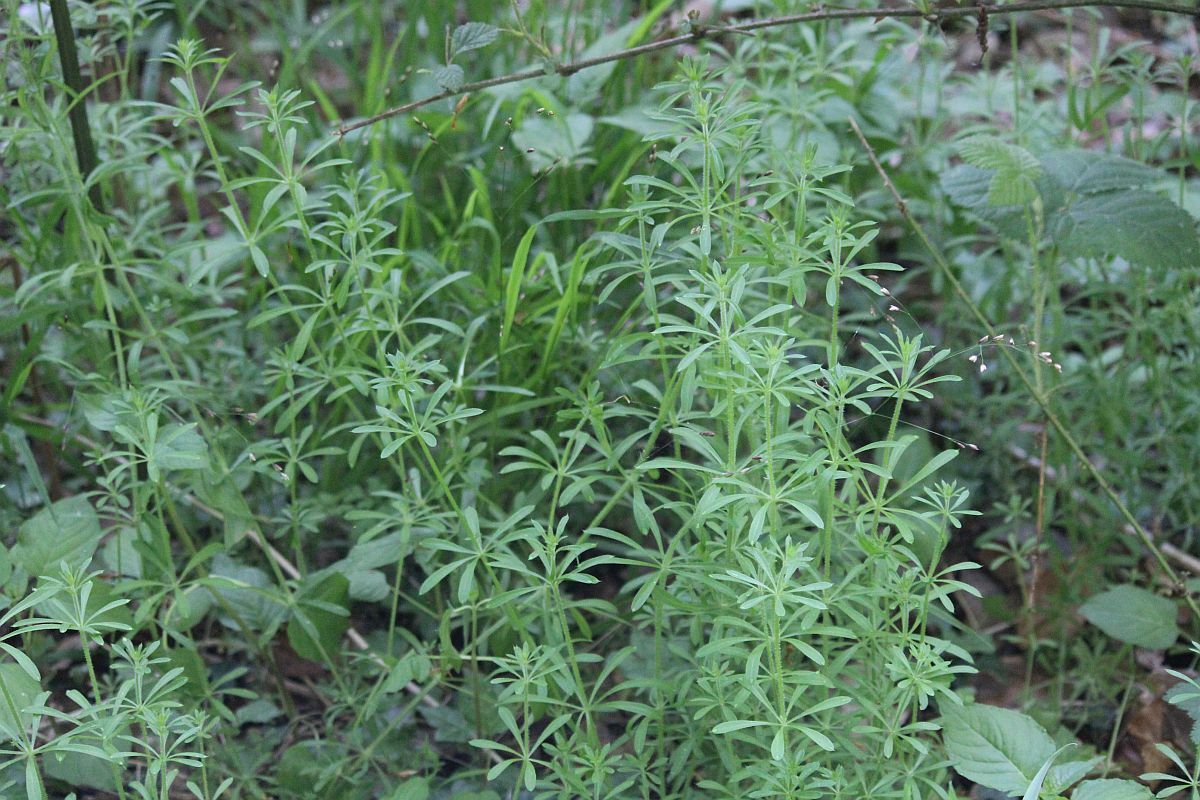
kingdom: Plantae
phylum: Tracheophyta
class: Magnoliopsida
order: Gentianales
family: Rubiaceae
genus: Galium
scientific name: Galium aparine
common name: Cleavers
